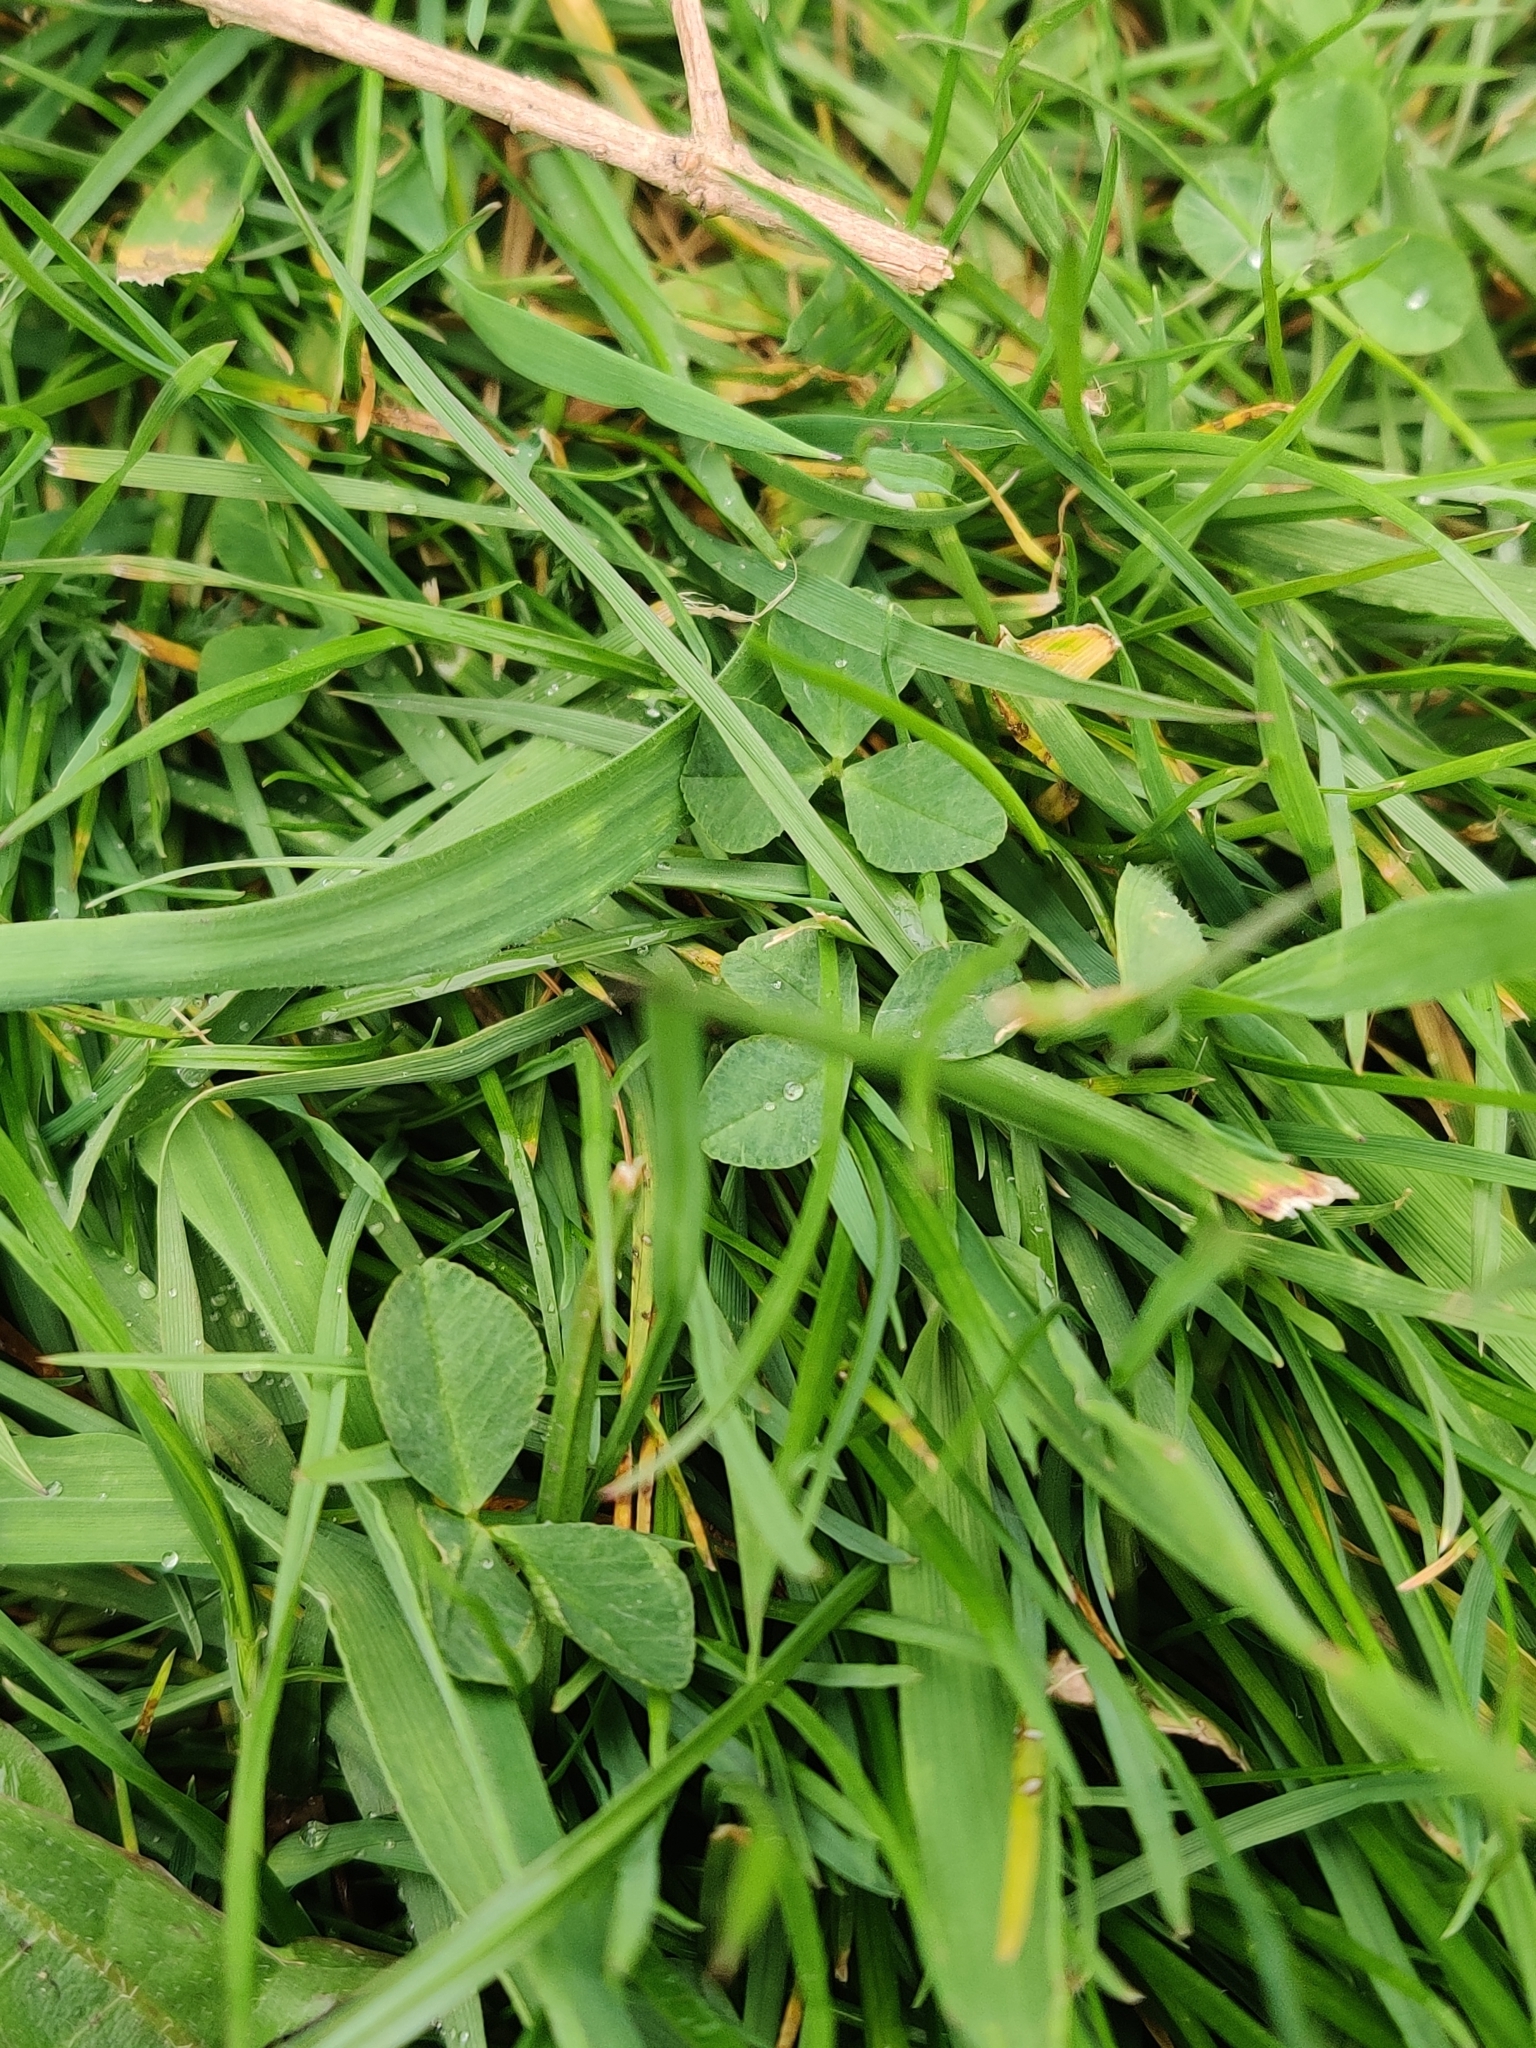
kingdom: Plantae
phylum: Tracheophyta
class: Magnoliopsida
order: Fabales
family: Fabaceae
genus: Trifolium
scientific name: Trifolium repens
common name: White clover
